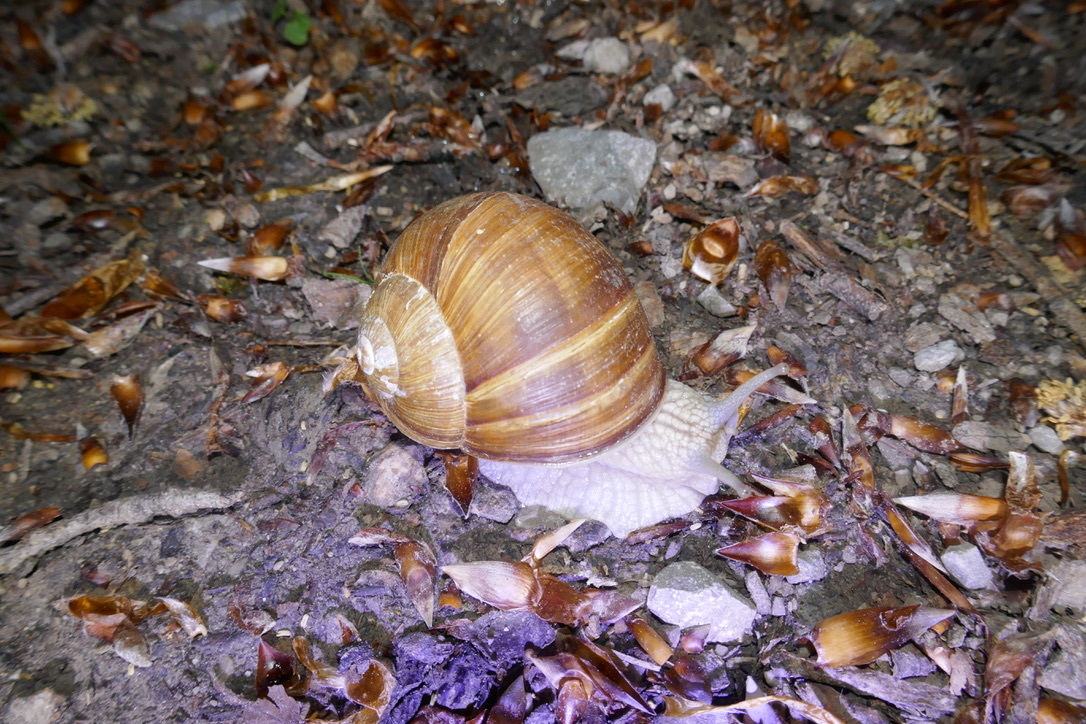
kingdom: Animalia
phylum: Mollusca
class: Gastropoda
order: Stylommatophora
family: Helicidae
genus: Helix
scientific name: Helix pomatia
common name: Roman snail
